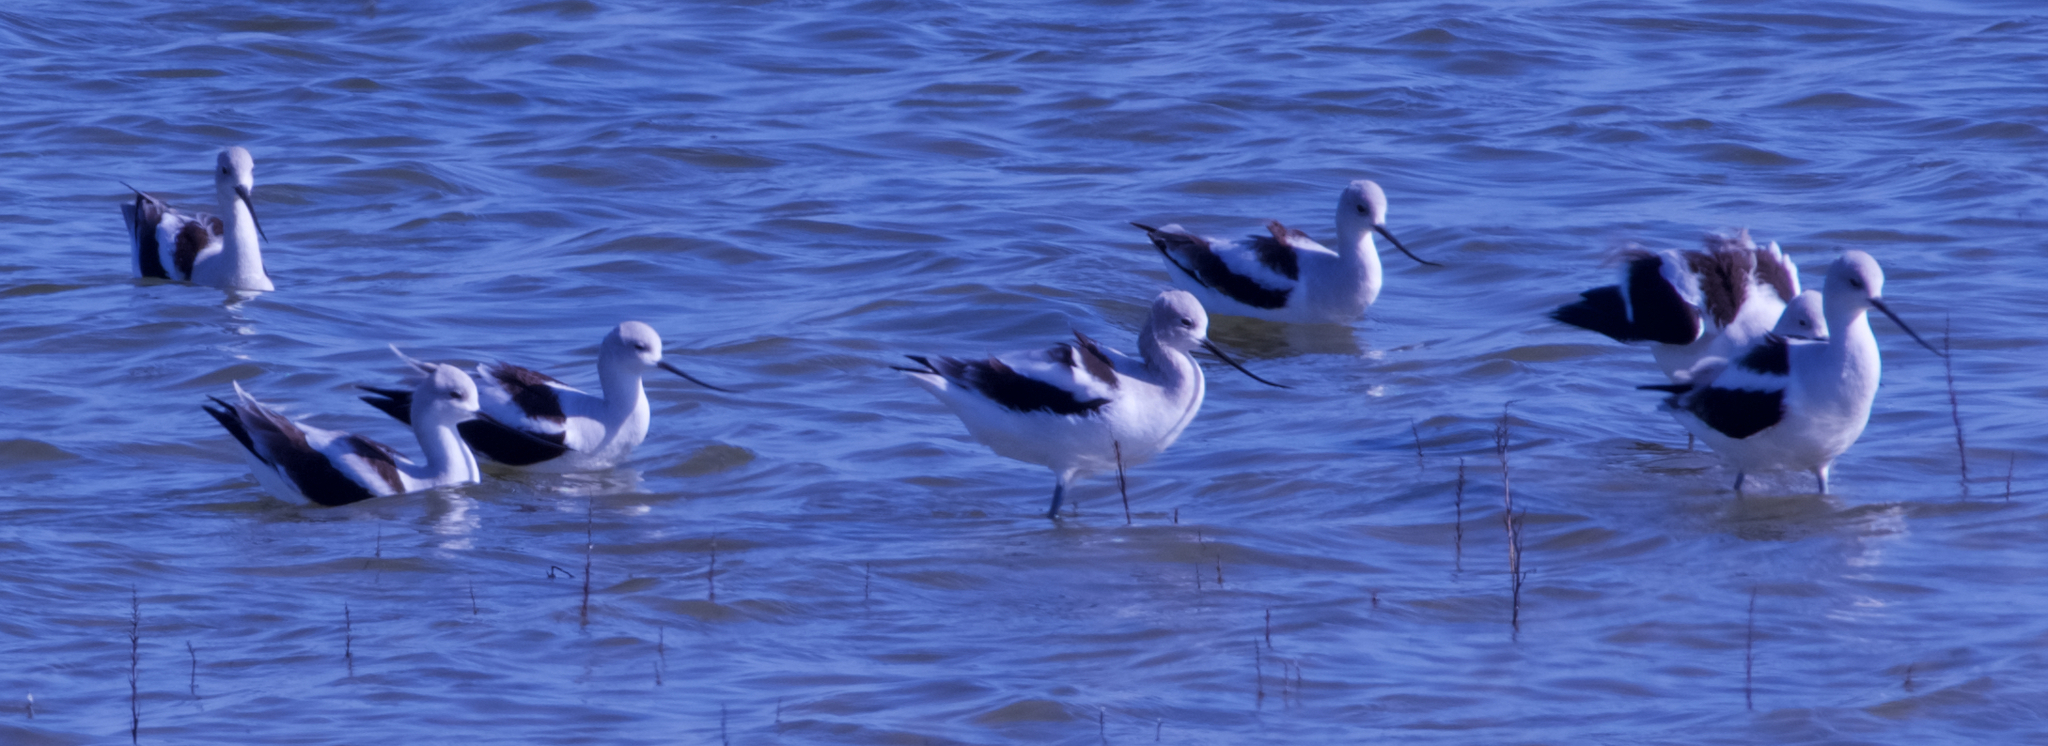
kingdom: Animalia
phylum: Chordata
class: Aves
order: Charadriiformes
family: Recurvirostridae
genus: Recurvirostra
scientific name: Recurvirostra americana
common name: American avocet
